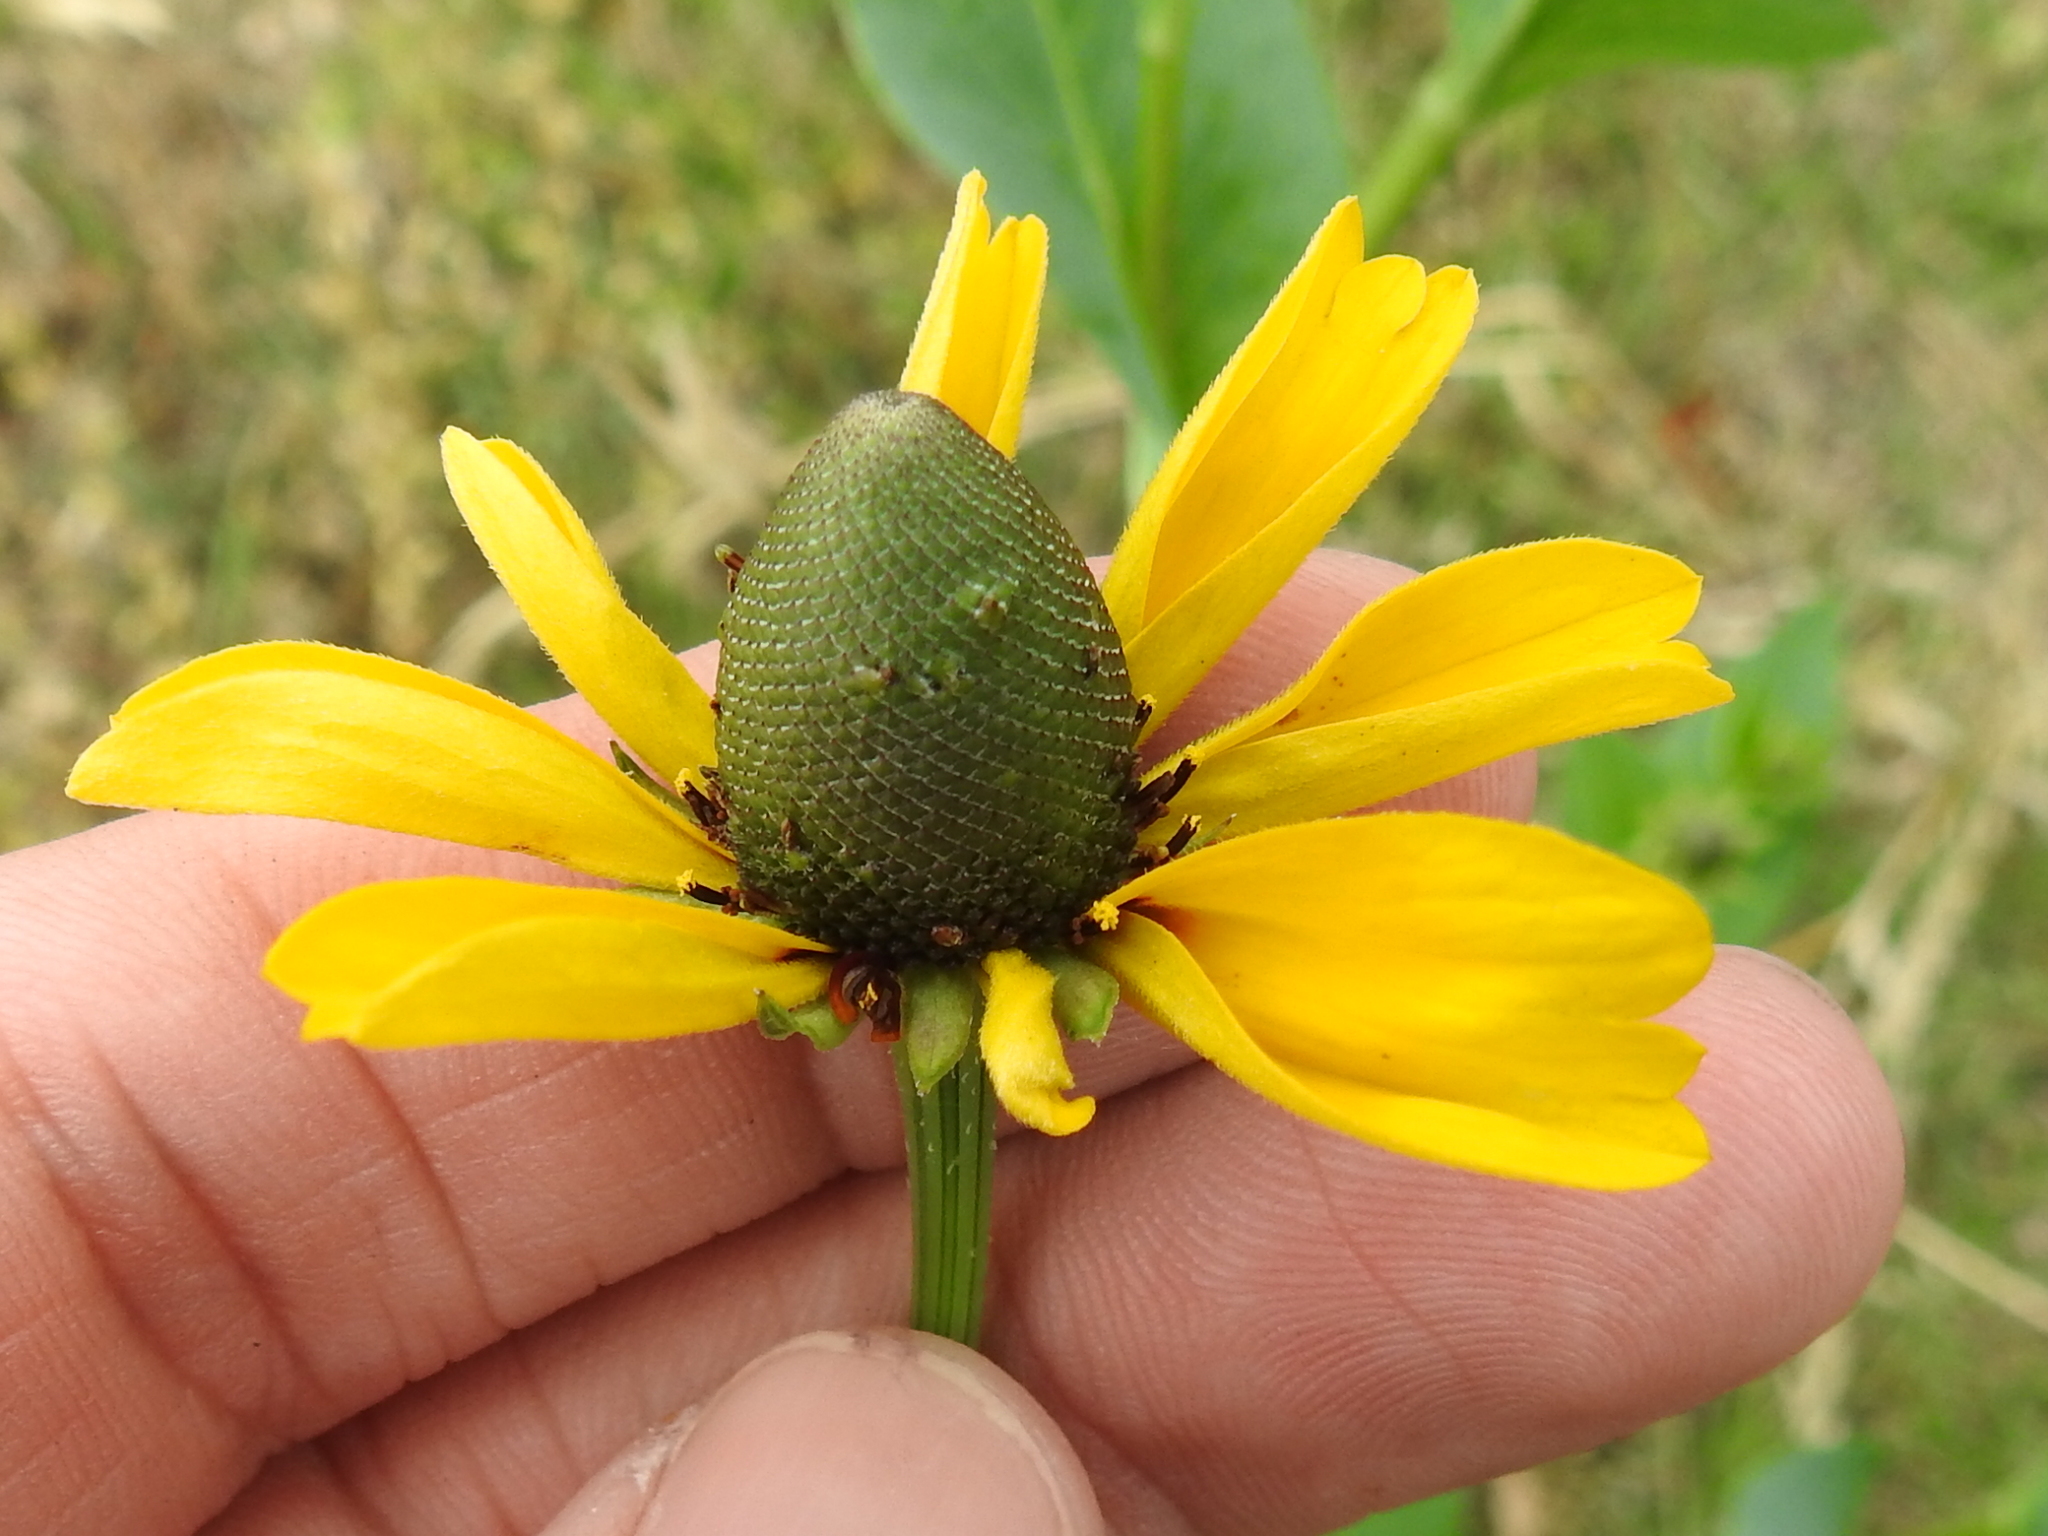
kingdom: Plantae
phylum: Tracheophyta
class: Magnoliopsida
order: Asterales
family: Asteraceae
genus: Rudbeckia
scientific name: Rudbeckia amplexicaulis
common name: Clasping-leaf coneflower
